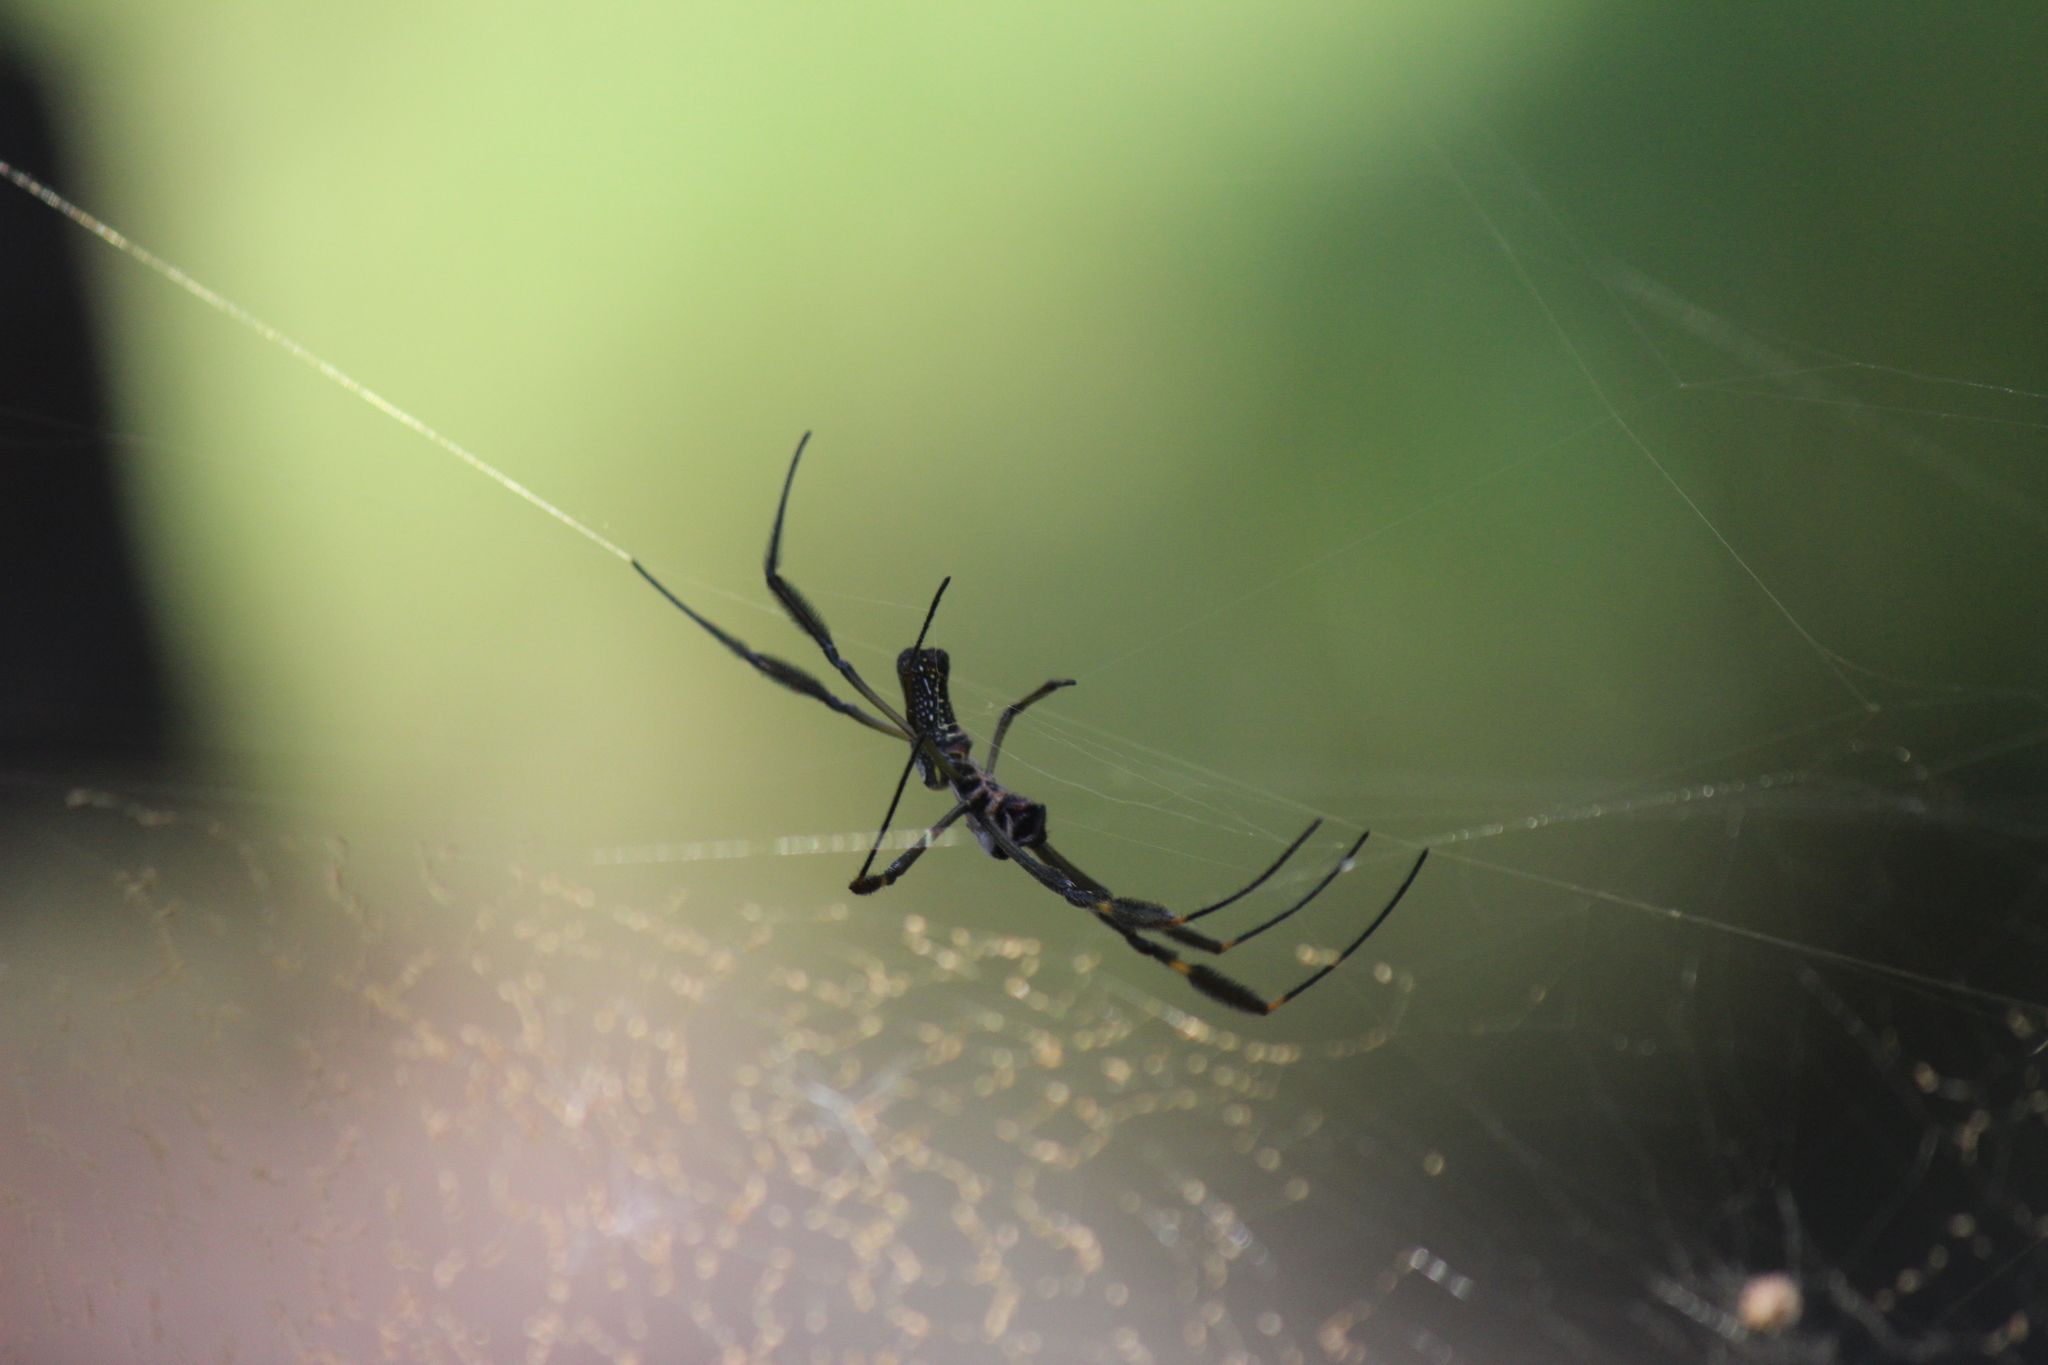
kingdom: Animalia
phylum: Arthropoda
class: Arachnida
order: Araneae
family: Araneidae
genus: Trichonephila
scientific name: Trichonephila clavipes
